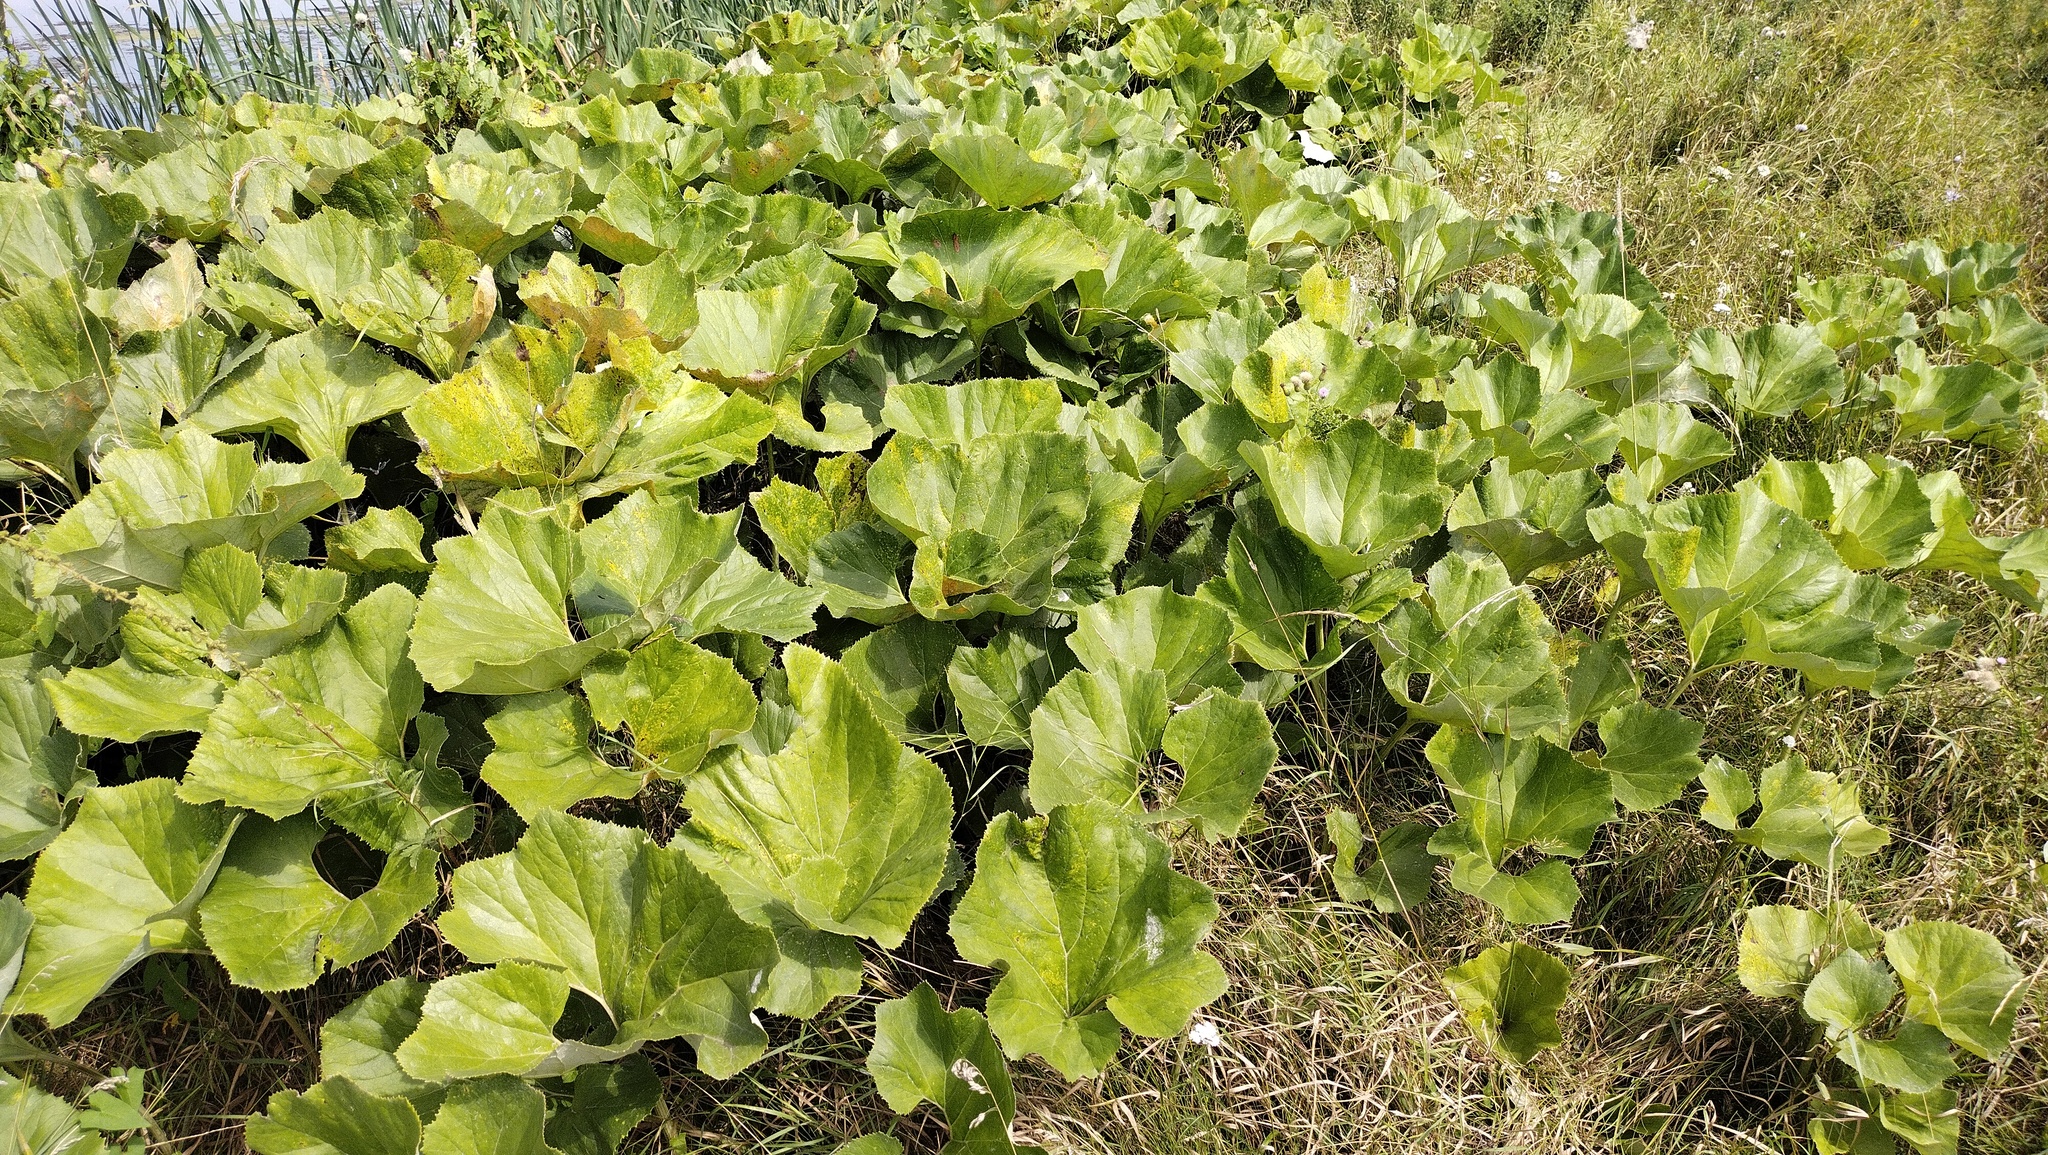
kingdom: Plantae
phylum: Tracheophyta
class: Magnoliopsida
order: Asterales
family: Asteraceae
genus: Petasites
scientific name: Petasites spurius
